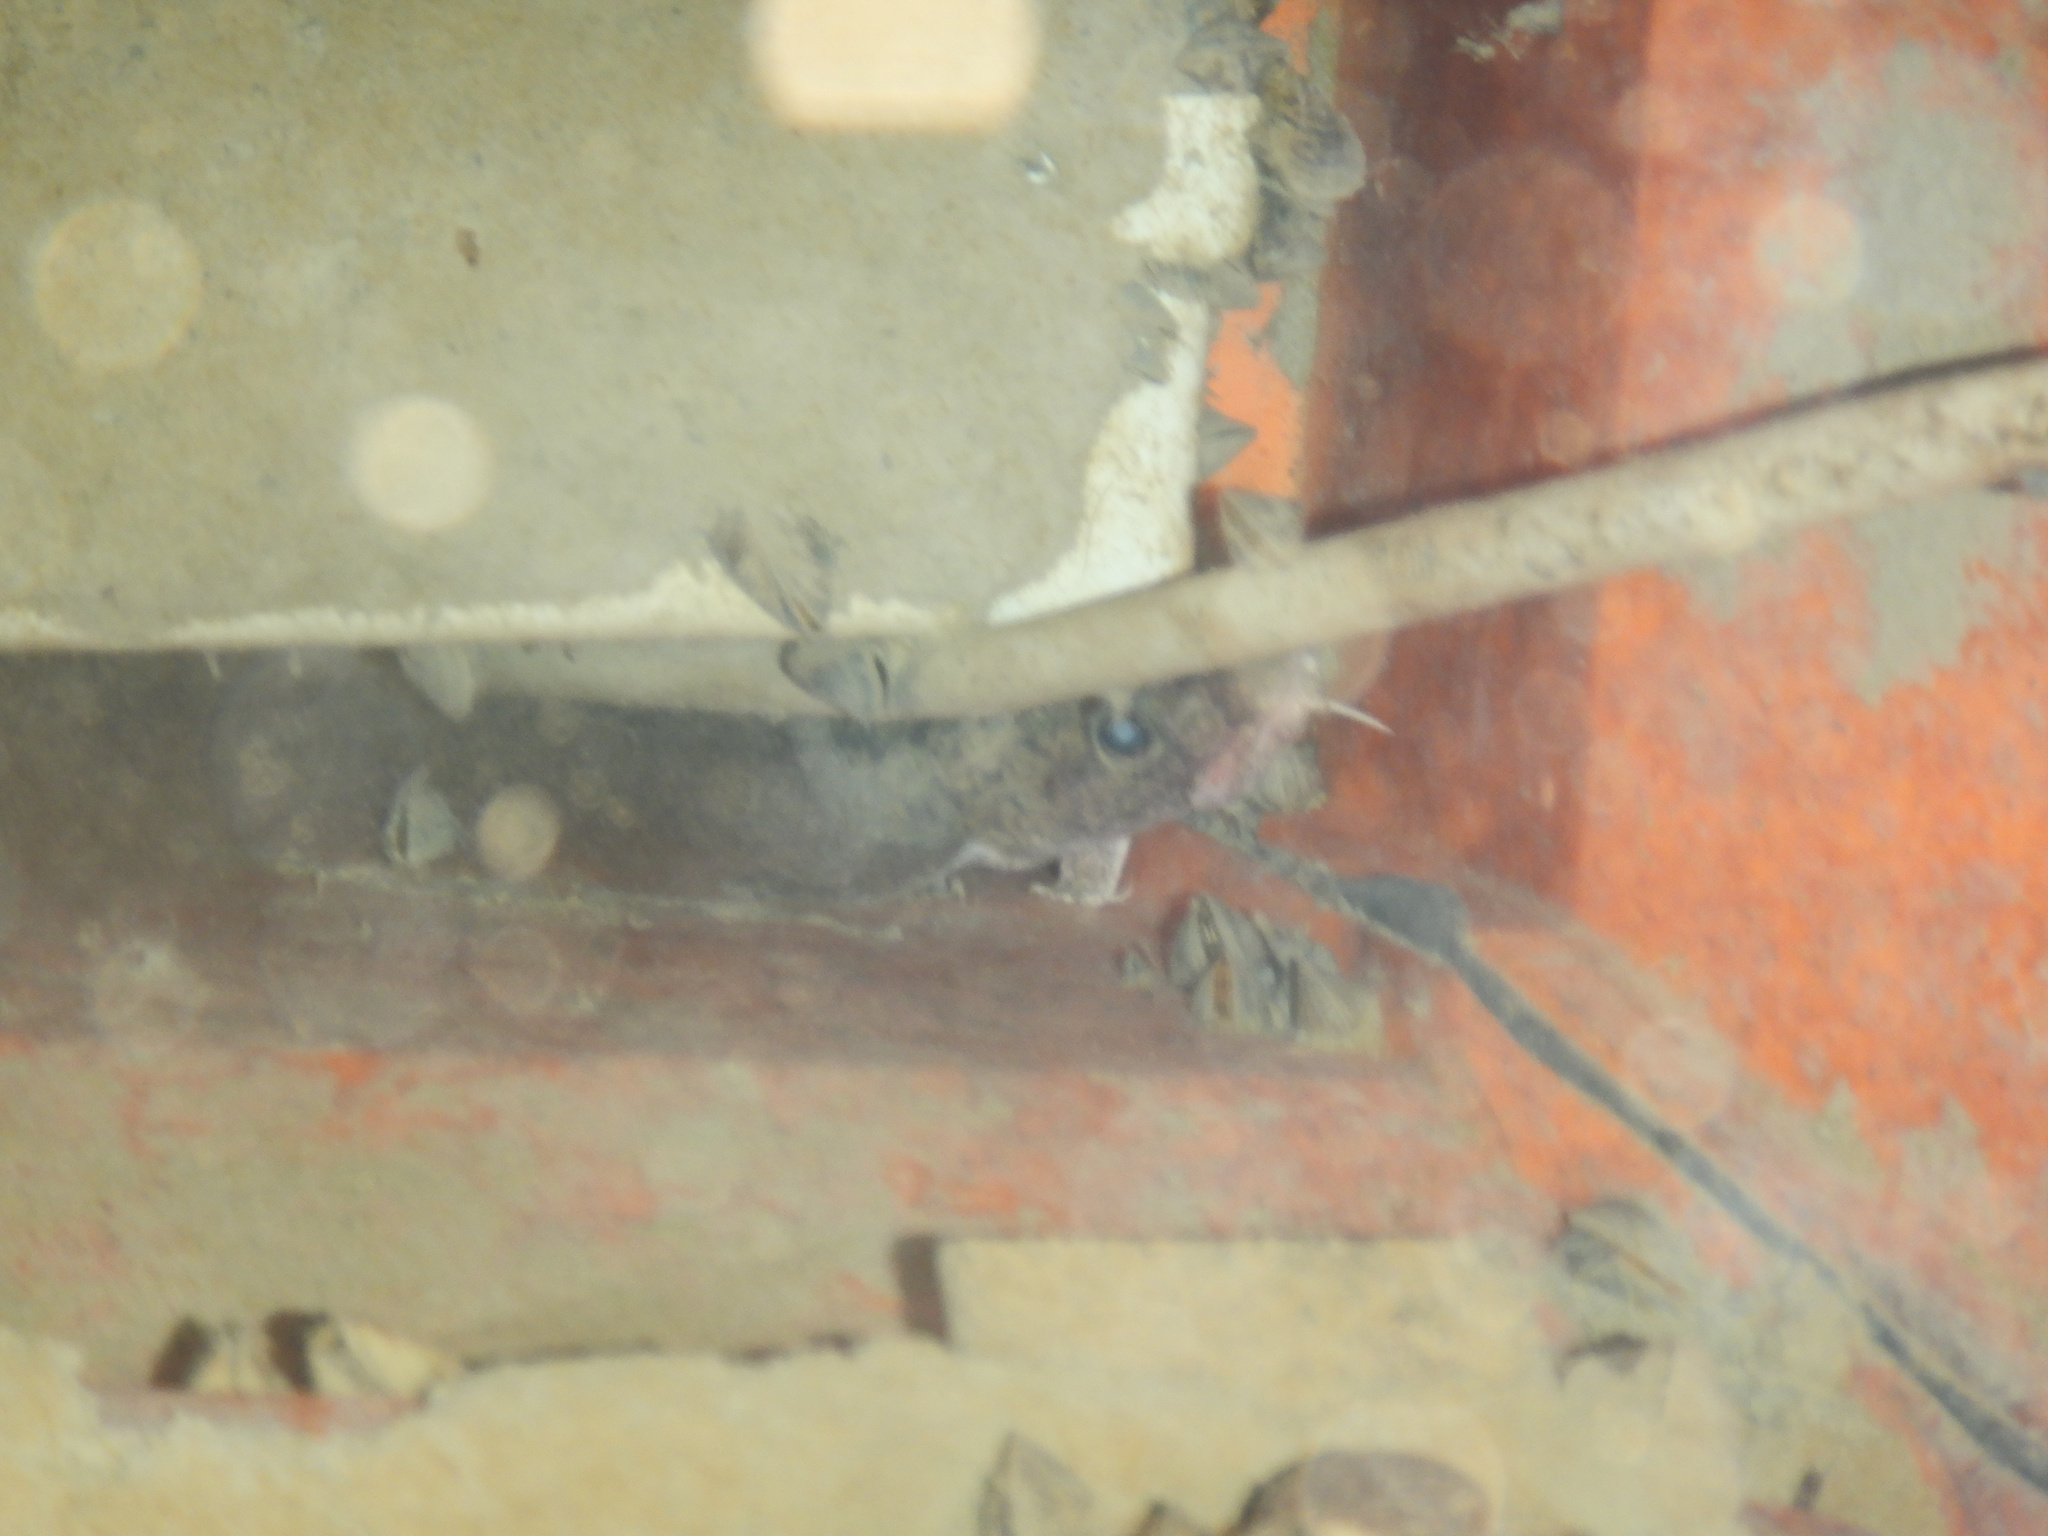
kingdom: Animalia
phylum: Chordata
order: Gadiformes
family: Lotidae
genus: Lota
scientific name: Lota lota
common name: Burbot
